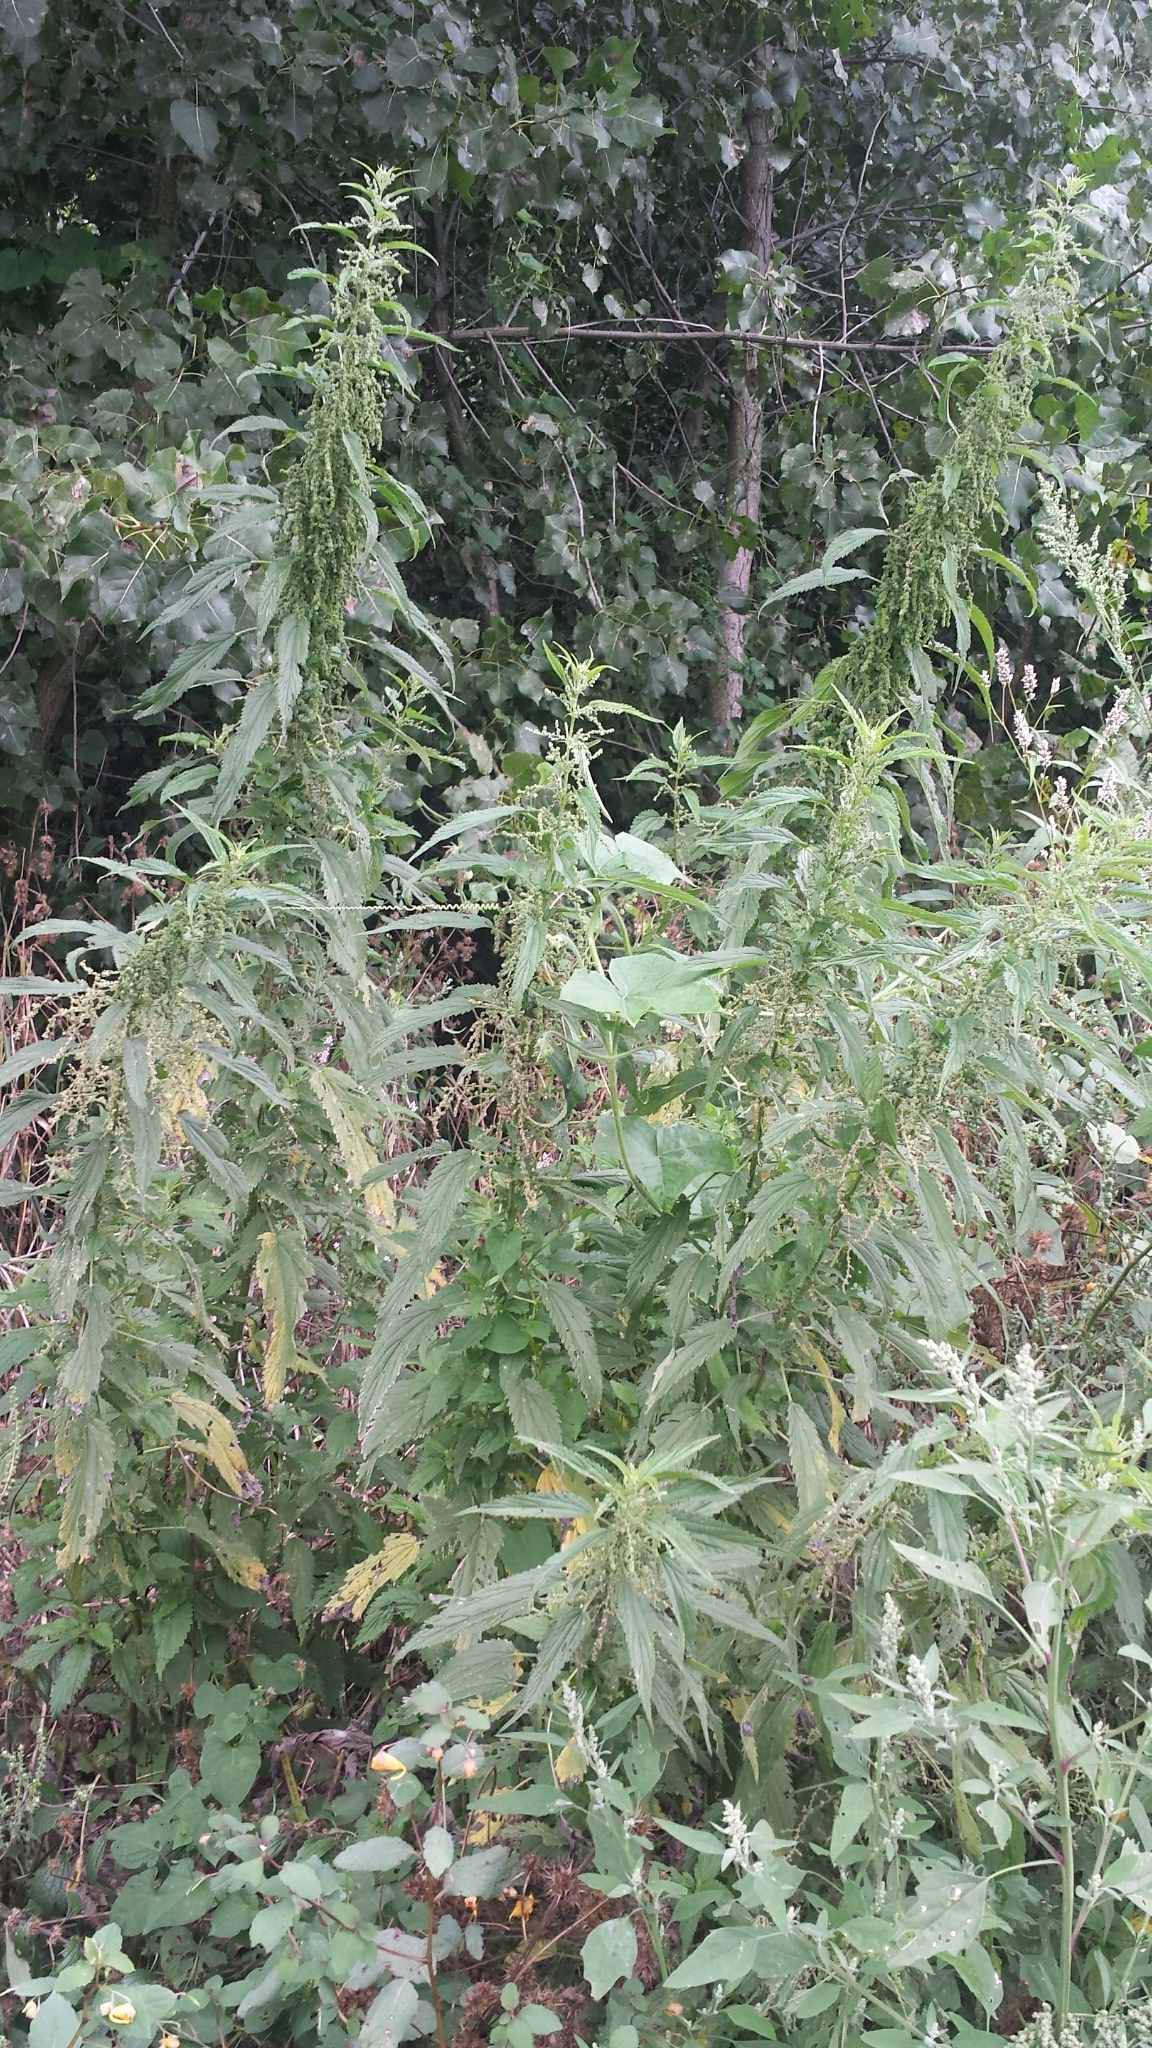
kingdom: Plantae
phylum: Tracheophyta
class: Magnoliopsida
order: Rosales
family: Urticaceae
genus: Urtica
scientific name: Urtica dioica
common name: Common nettle
